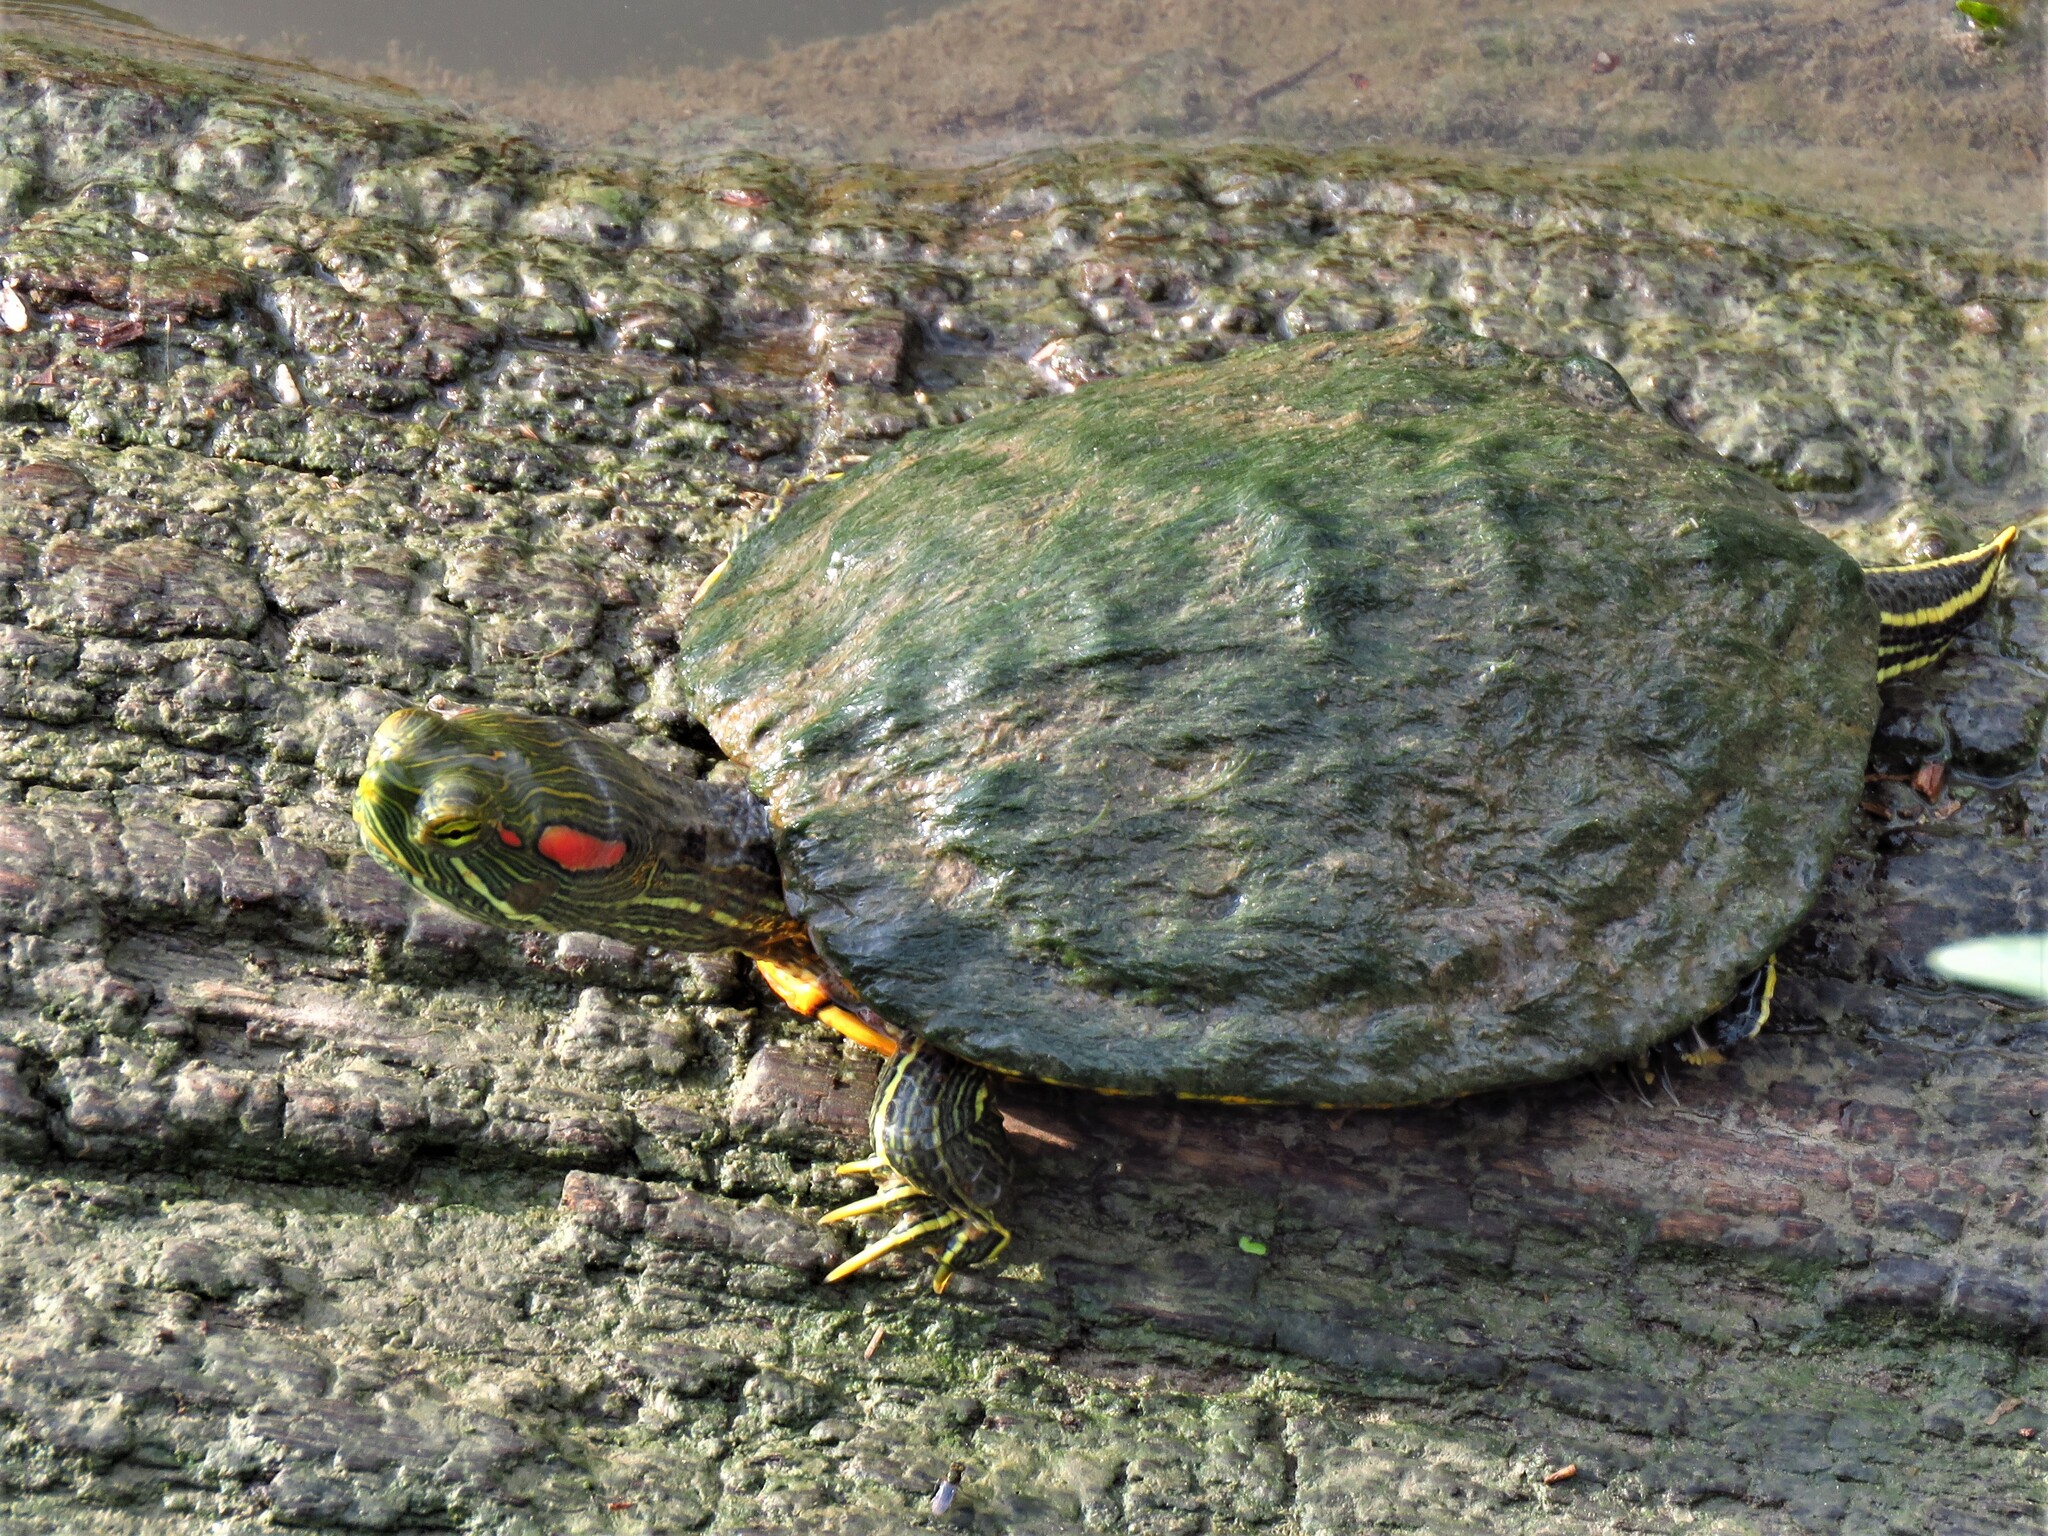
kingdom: Animalia
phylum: Chordata
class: Testudines
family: Emydidae
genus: Trachemys
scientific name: Trachemys scripta
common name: Slider
